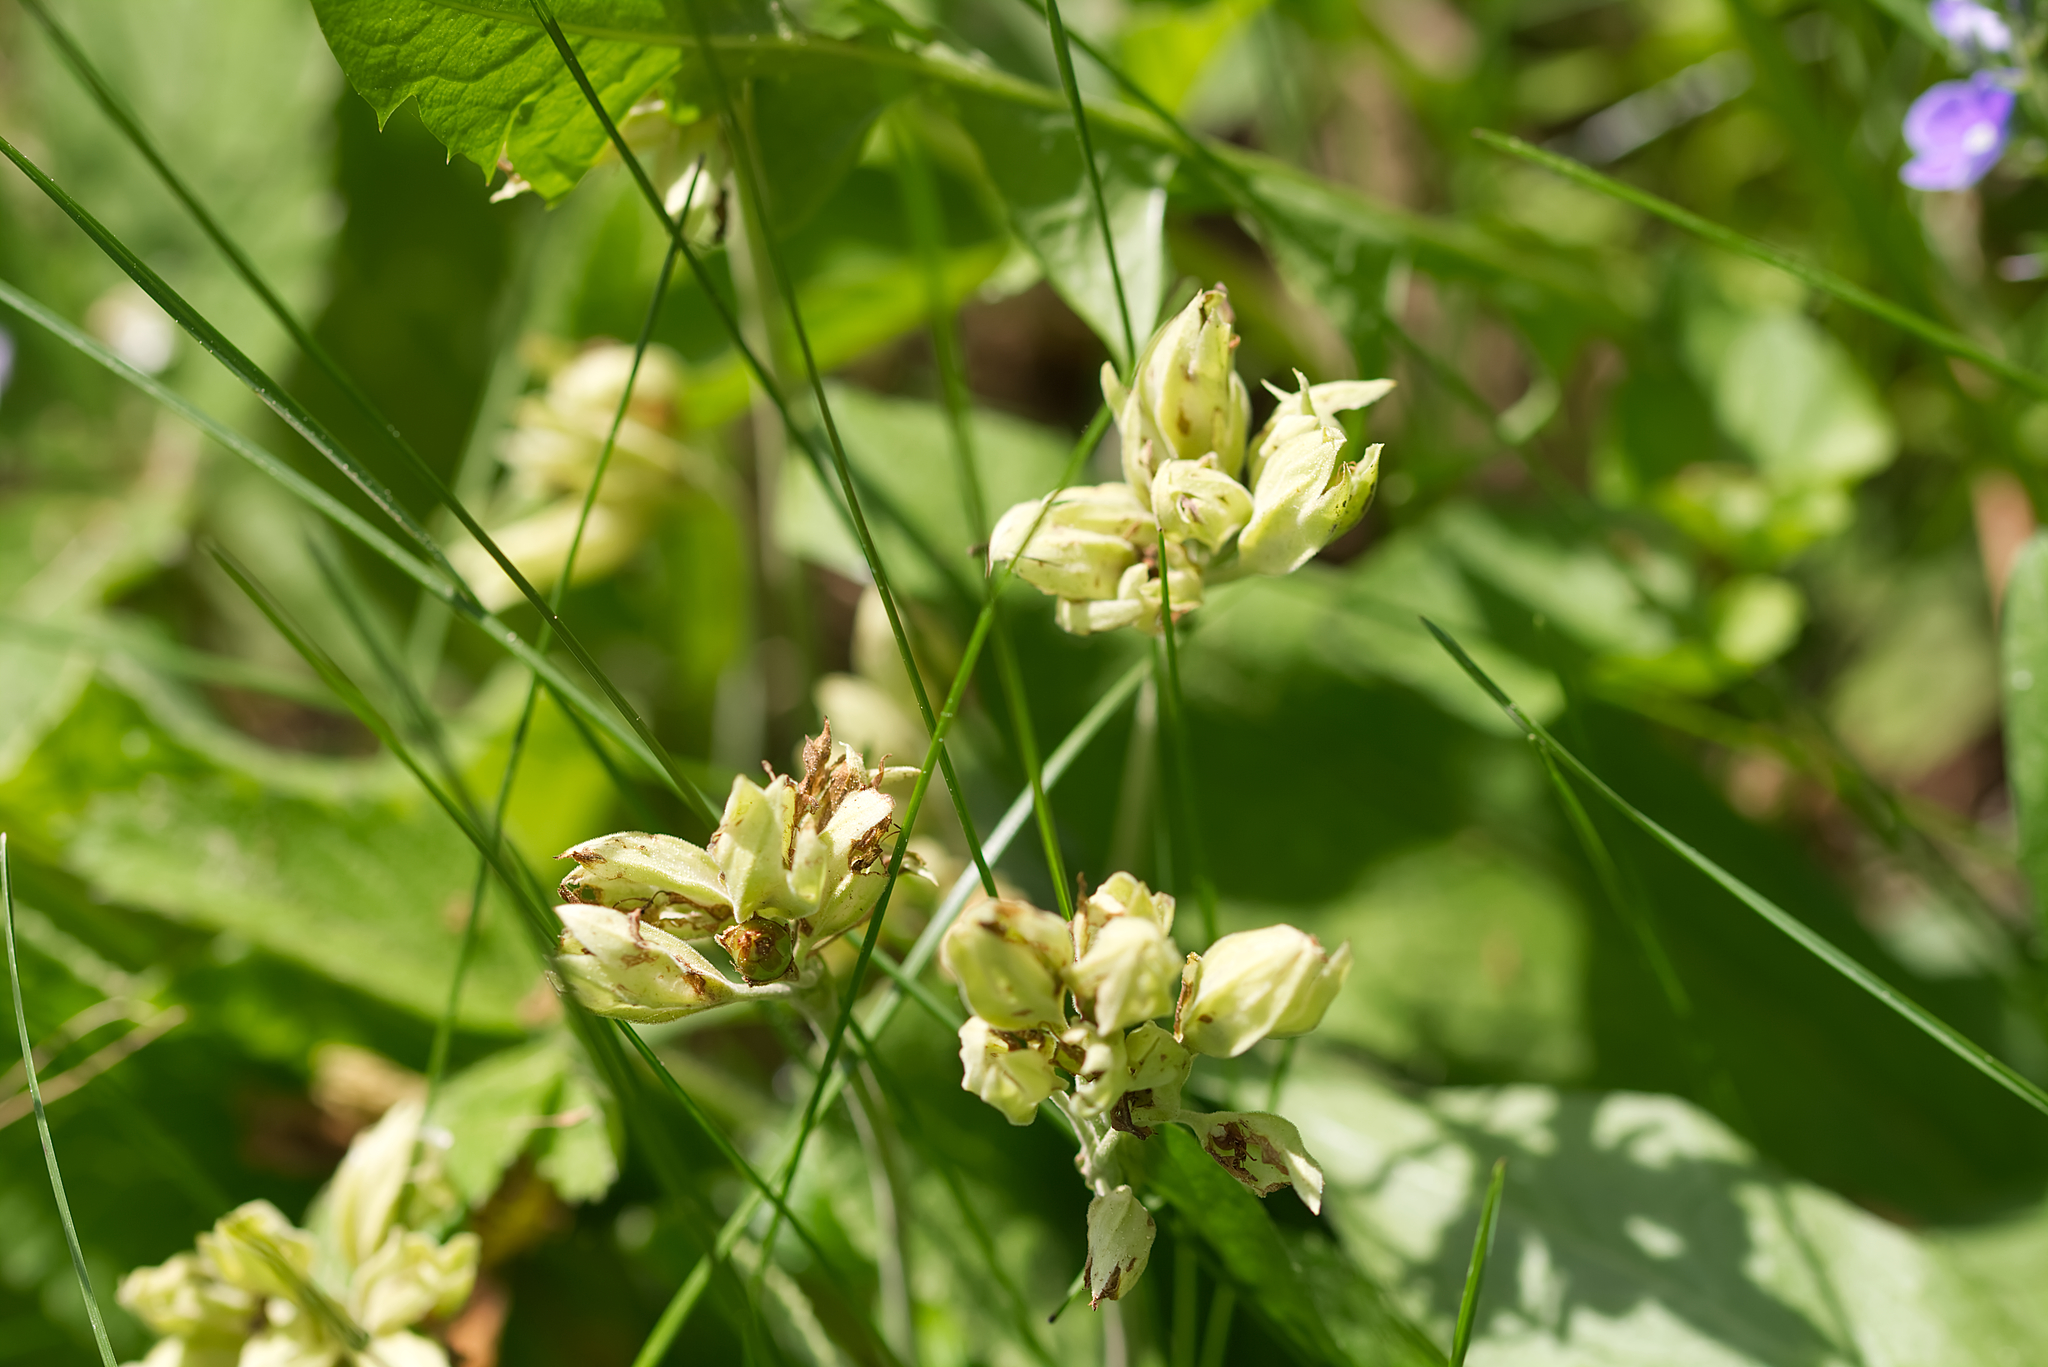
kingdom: Plantae
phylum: Tracheophyta
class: Magnoliopsida
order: Ericales
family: Primulaceae
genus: Primula
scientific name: Primula veris
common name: Cowslip
